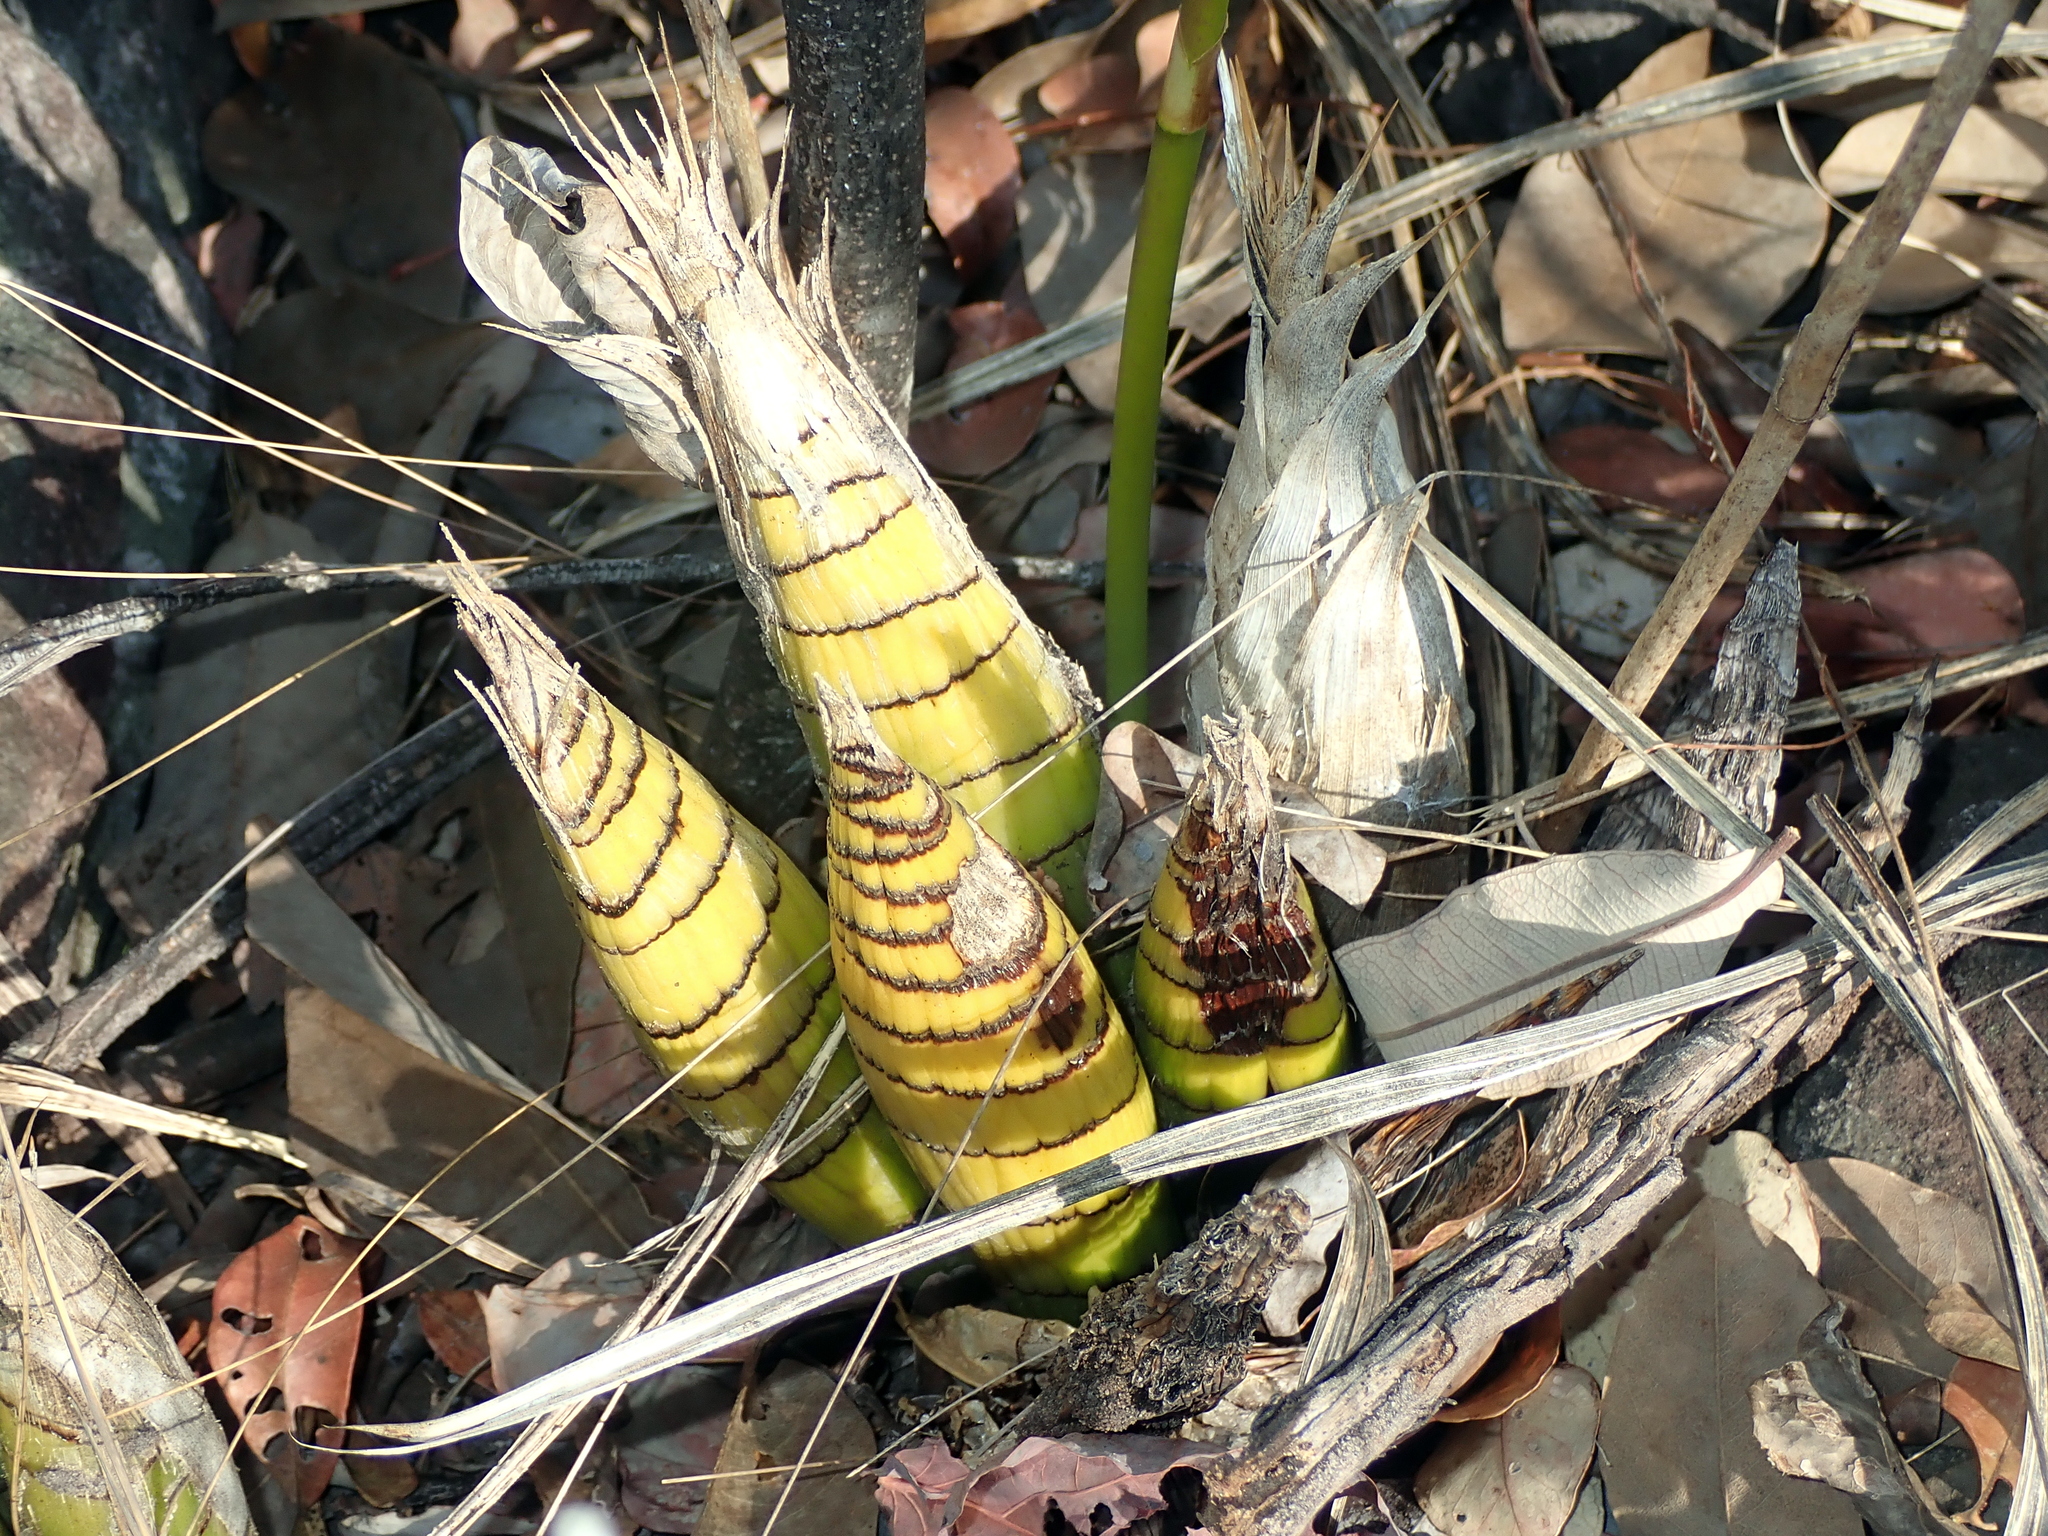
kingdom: Plantae
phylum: Tracheophyta
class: Liliopsida
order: Asparagales
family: Orchidaceae
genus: Cyrtopodium
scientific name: Cyrtopodium eugenii
